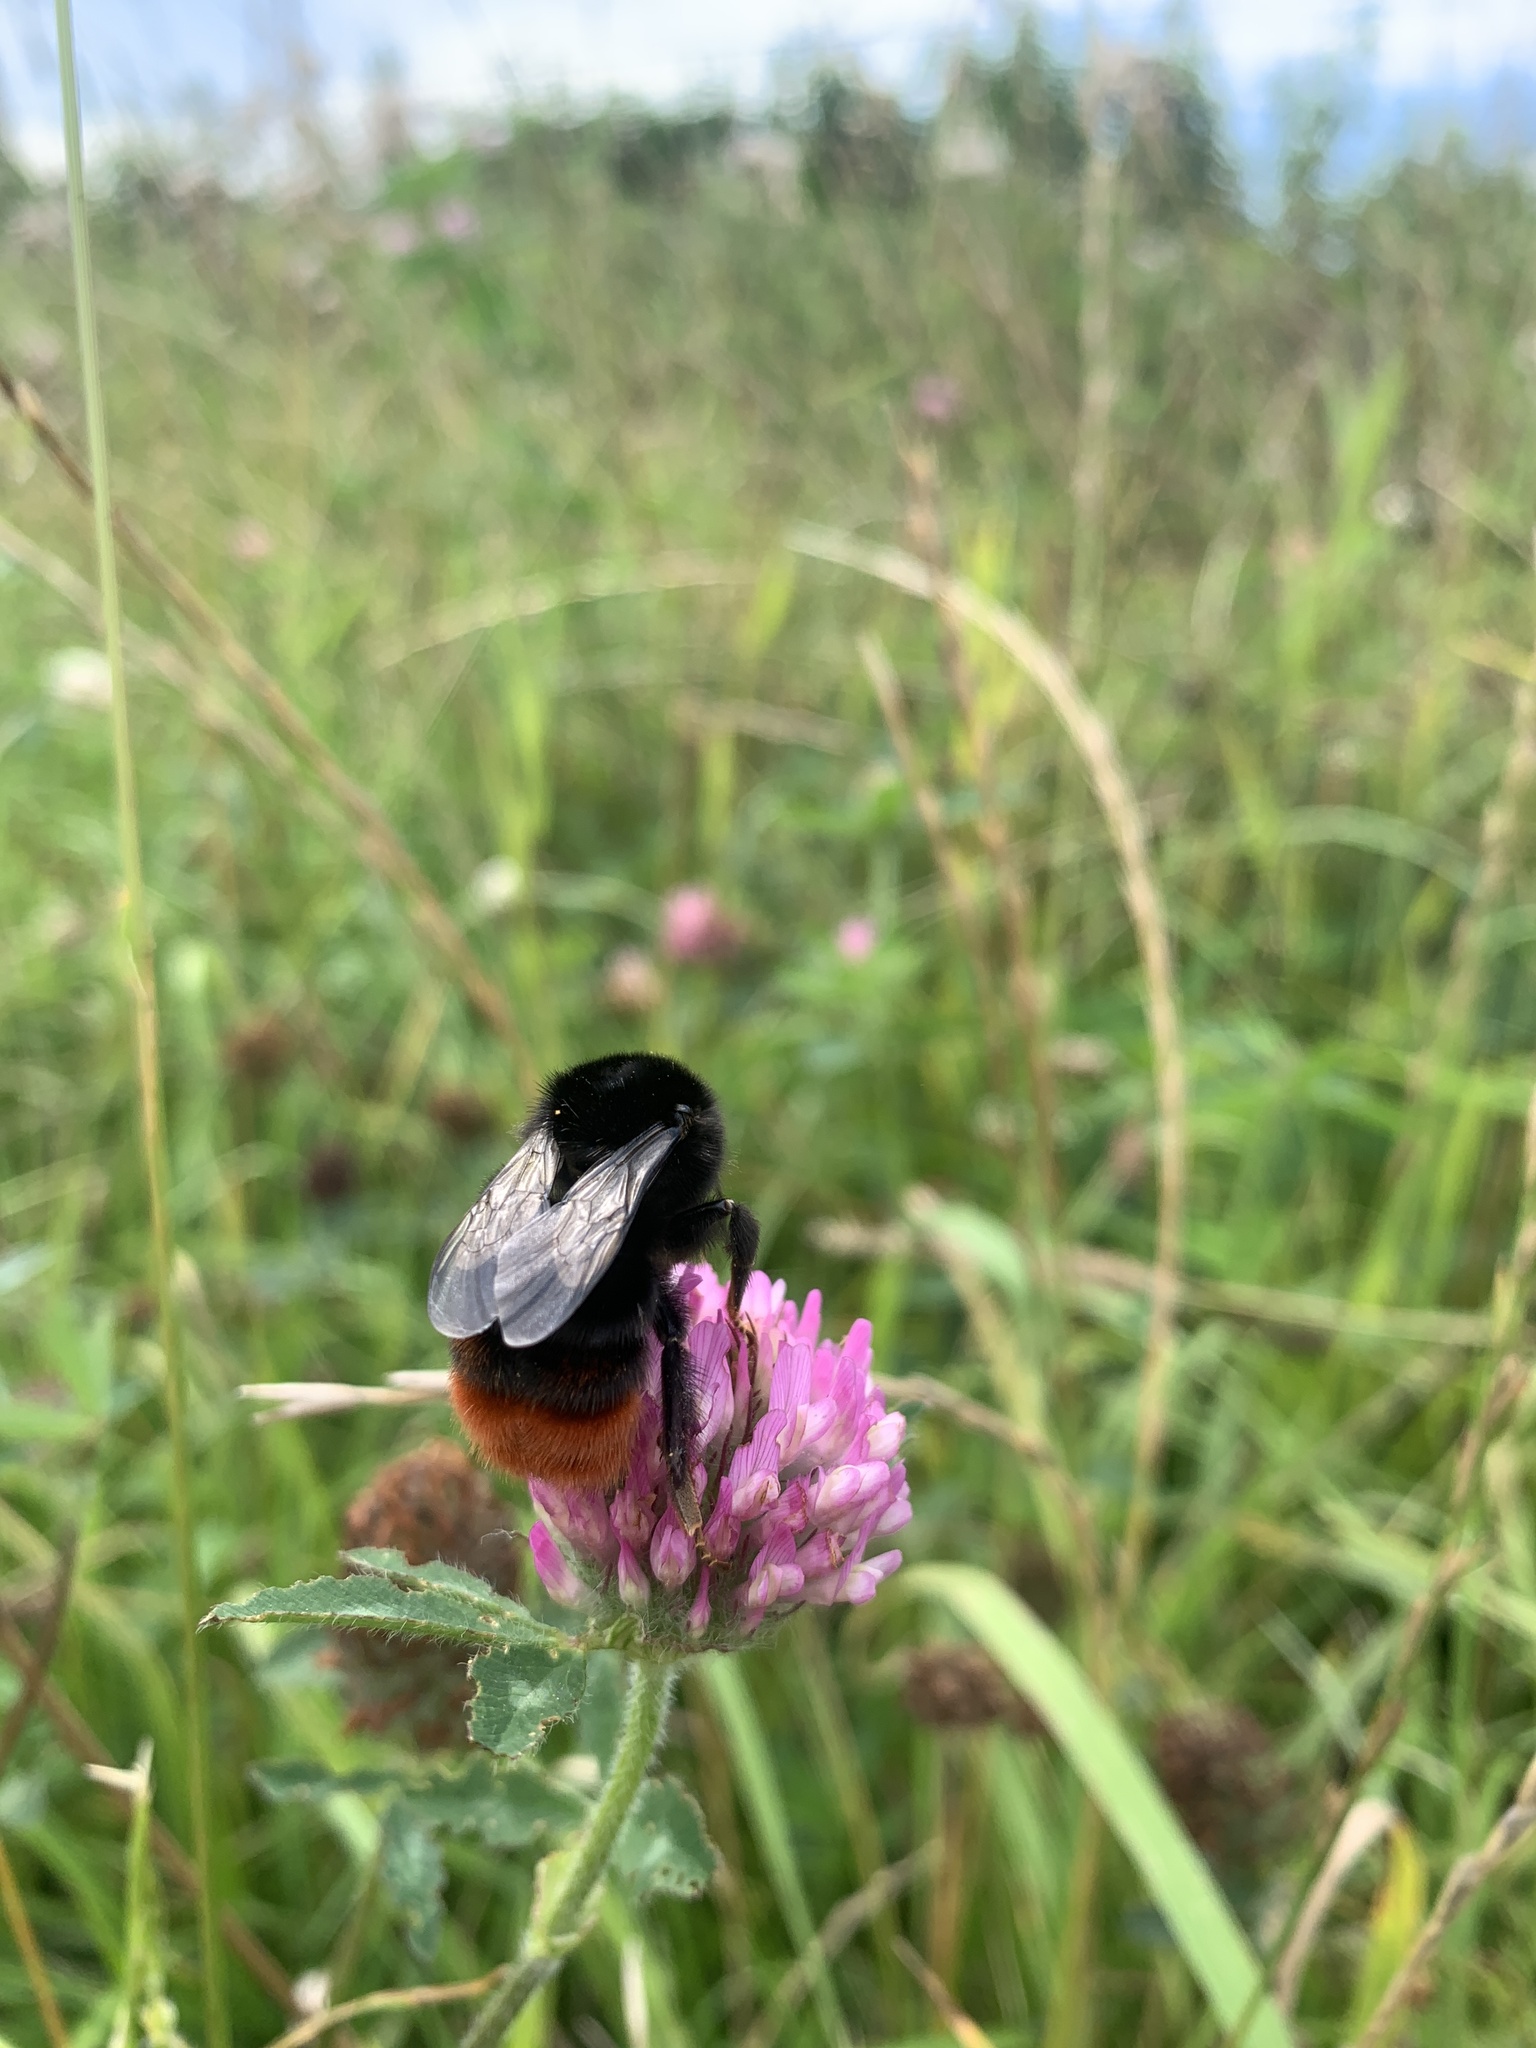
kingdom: Animalia
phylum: Arthropoda
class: Insecta
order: Hymenoptera
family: Apidae
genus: Bombus
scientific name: Bombus lapidarius
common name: Large red-tailed humble-bee
